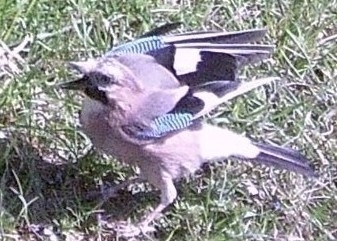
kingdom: Animalia
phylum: Chordata
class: Aves
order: Passeriformes
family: Corvidae
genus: Garrulus
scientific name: Garrulus glandarius
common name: Eurasian jay
